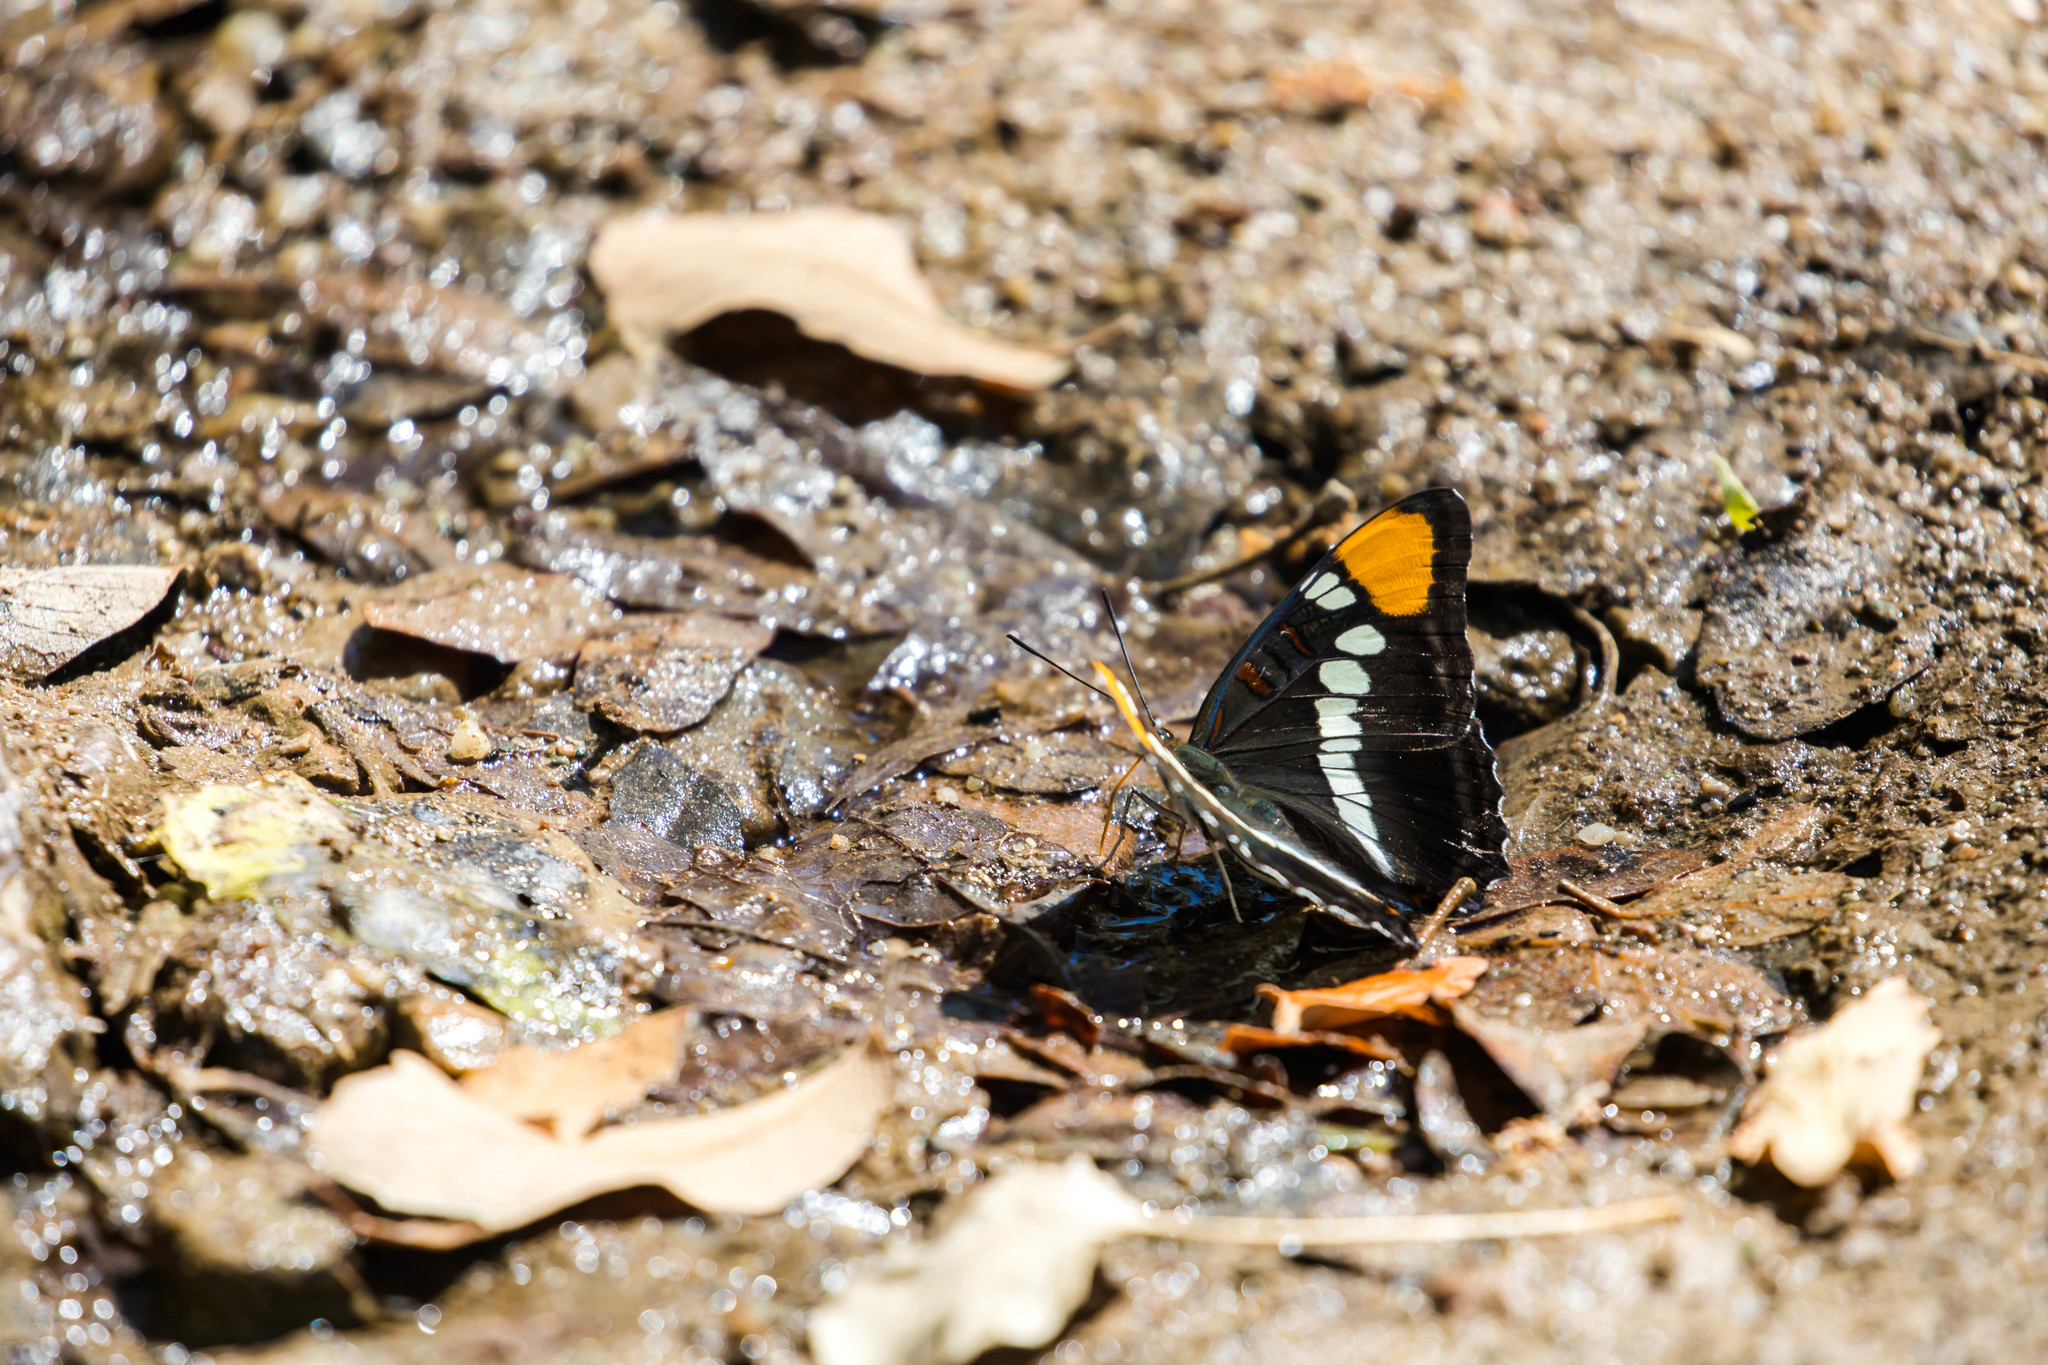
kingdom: Animalia
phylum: Arthropoda
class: Insecta
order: Lepidoptera
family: Nymphalidae
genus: Limenitis
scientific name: Limenitis bredowii
